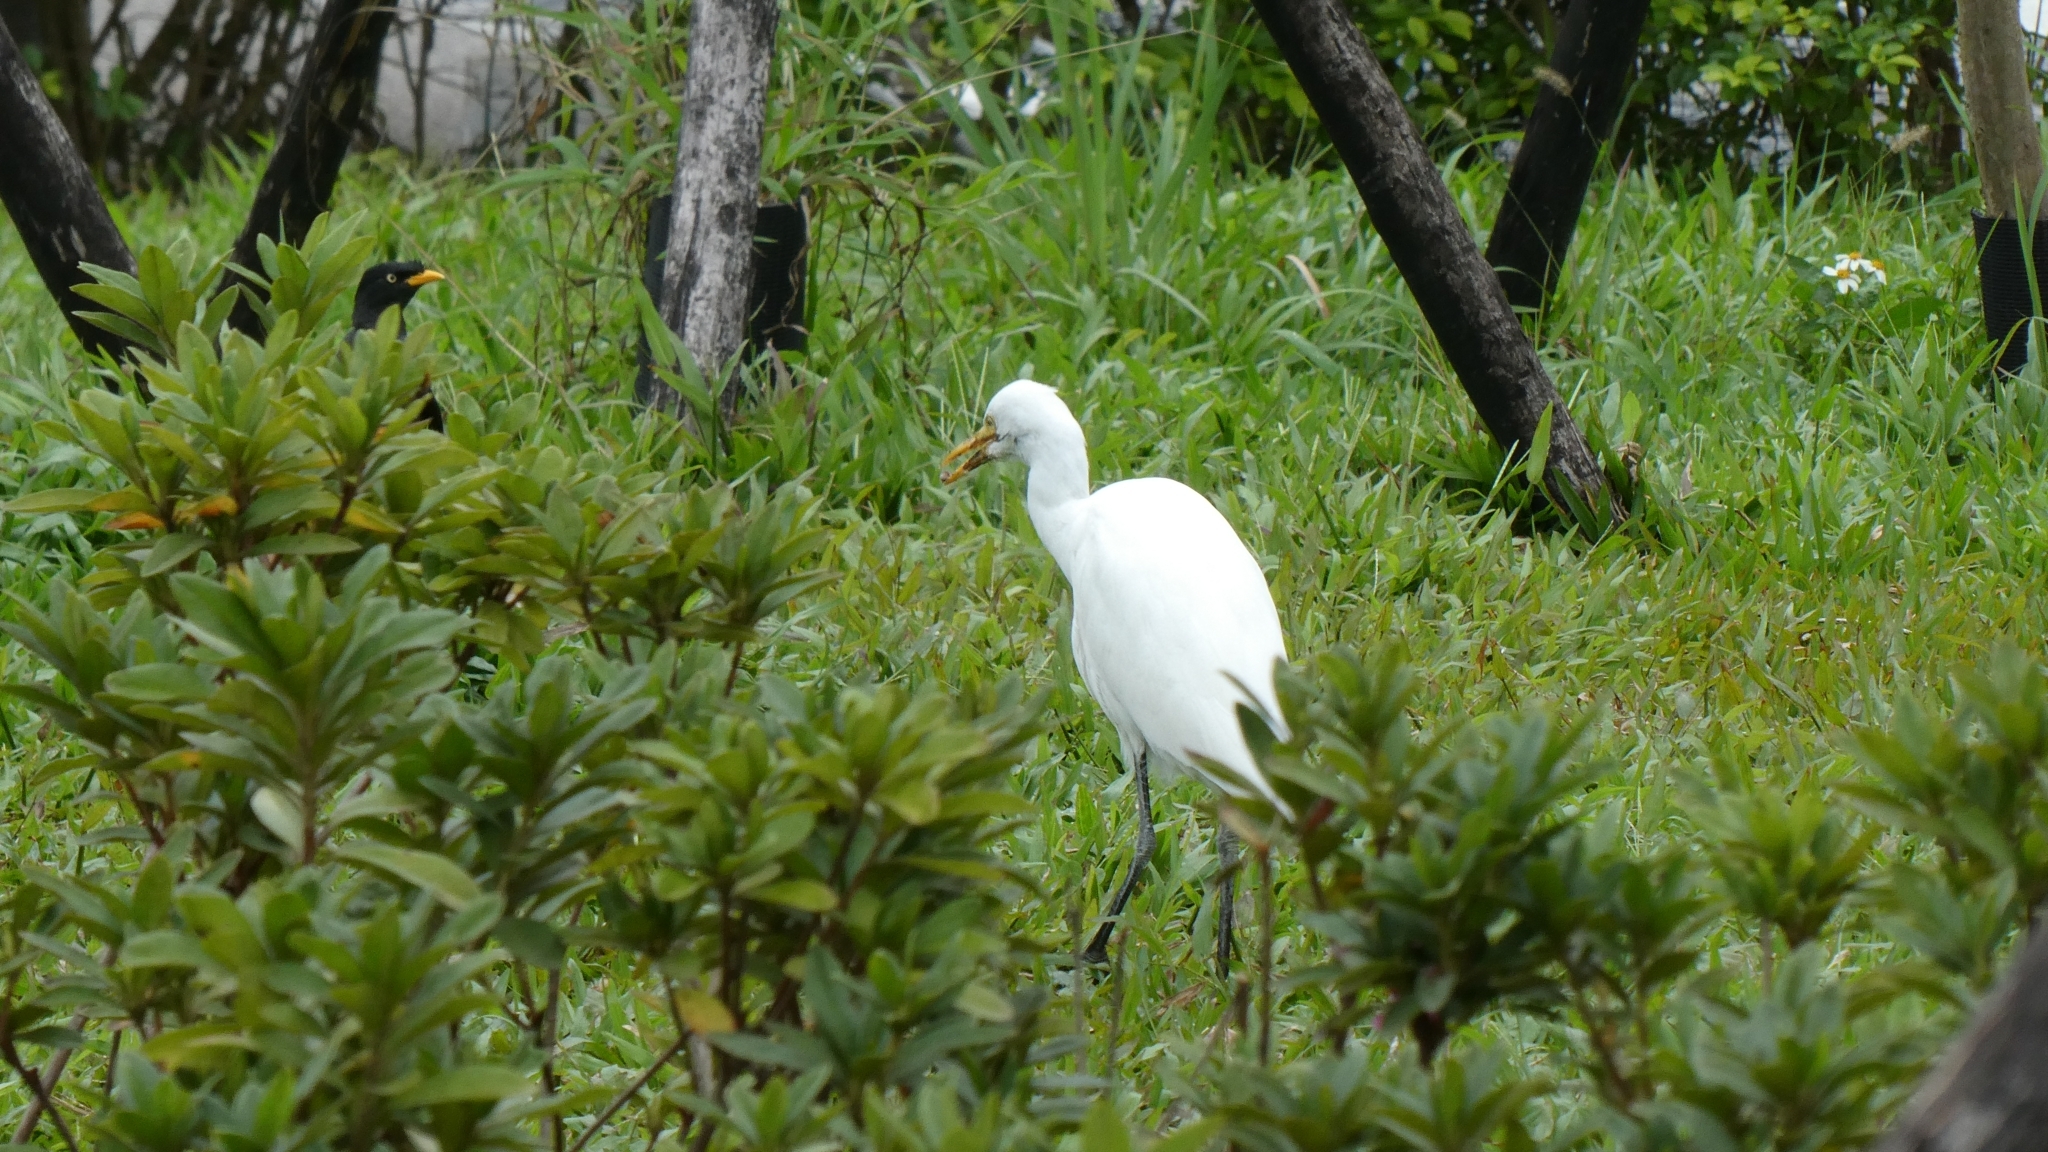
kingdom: Animalia
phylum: Chordata
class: Aves
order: Pelecaniformes
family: Ardeidae
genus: Bubulcus
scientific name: Bubulcus coromandus
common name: Eastern cattle egret
